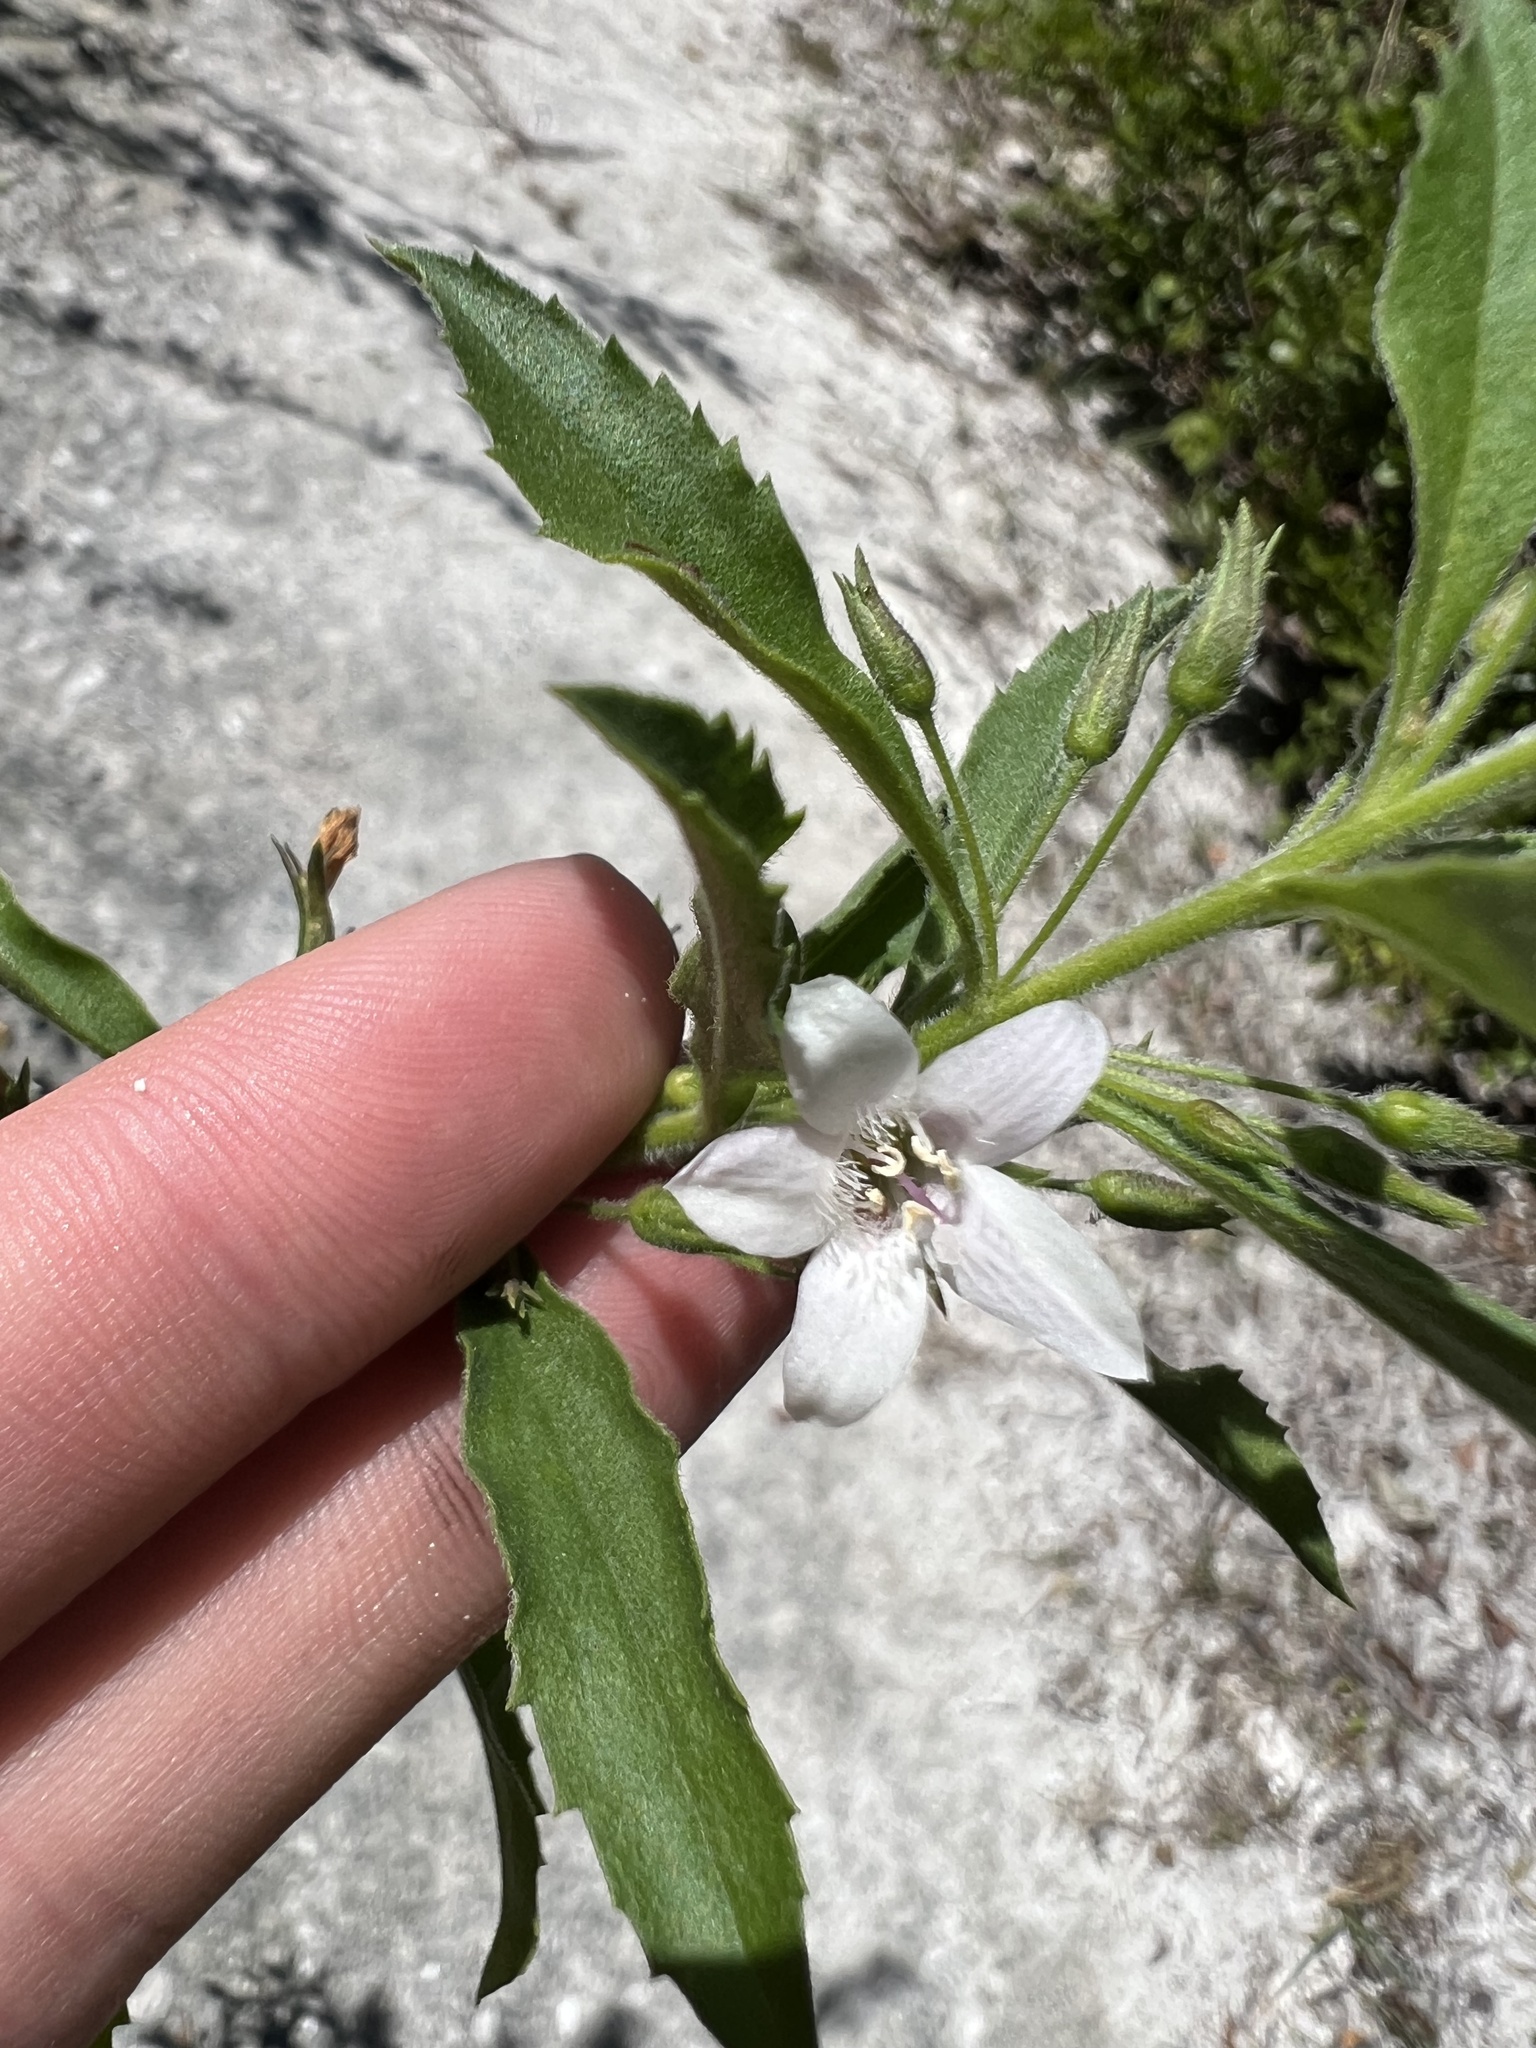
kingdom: Plantae
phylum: Tracheophyta
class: Magnoliopsida
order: Lamiales
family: Scrophulariaceae
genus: Capraria
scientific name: Capraria biflora
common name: Goatweed
